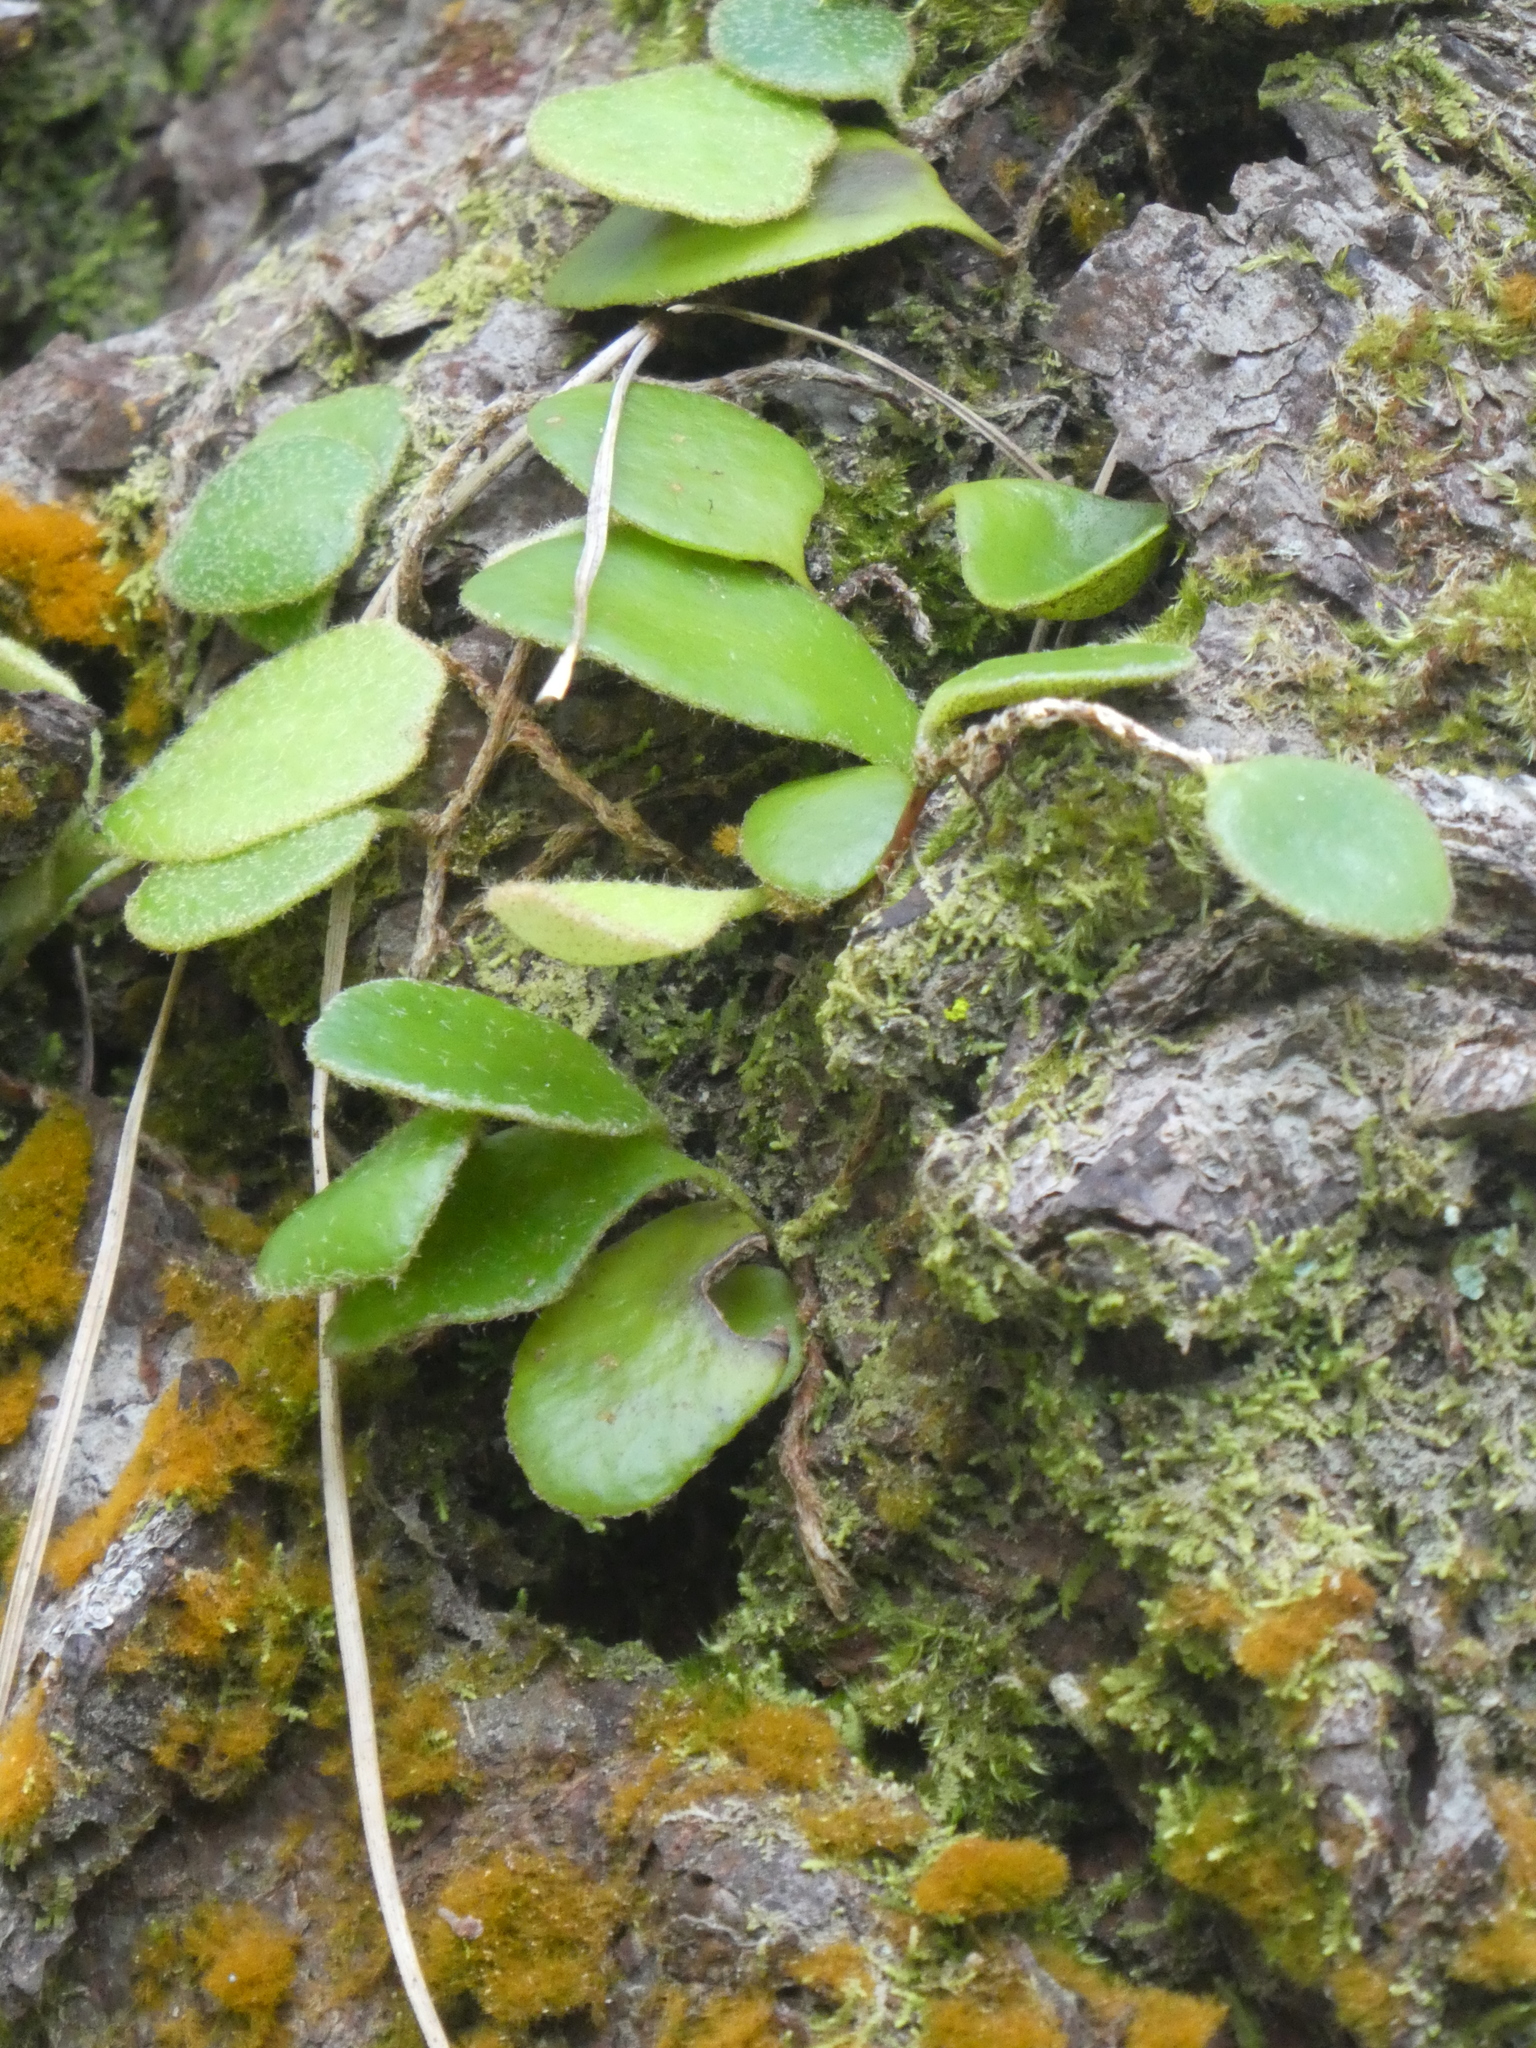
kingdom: Plantae
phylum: Tracheophyta
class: Polypodiopsida
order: Polypodiales
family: Polypodiaceae
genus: Pyrrosia
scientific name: Pyrrosia eleagnifolia
